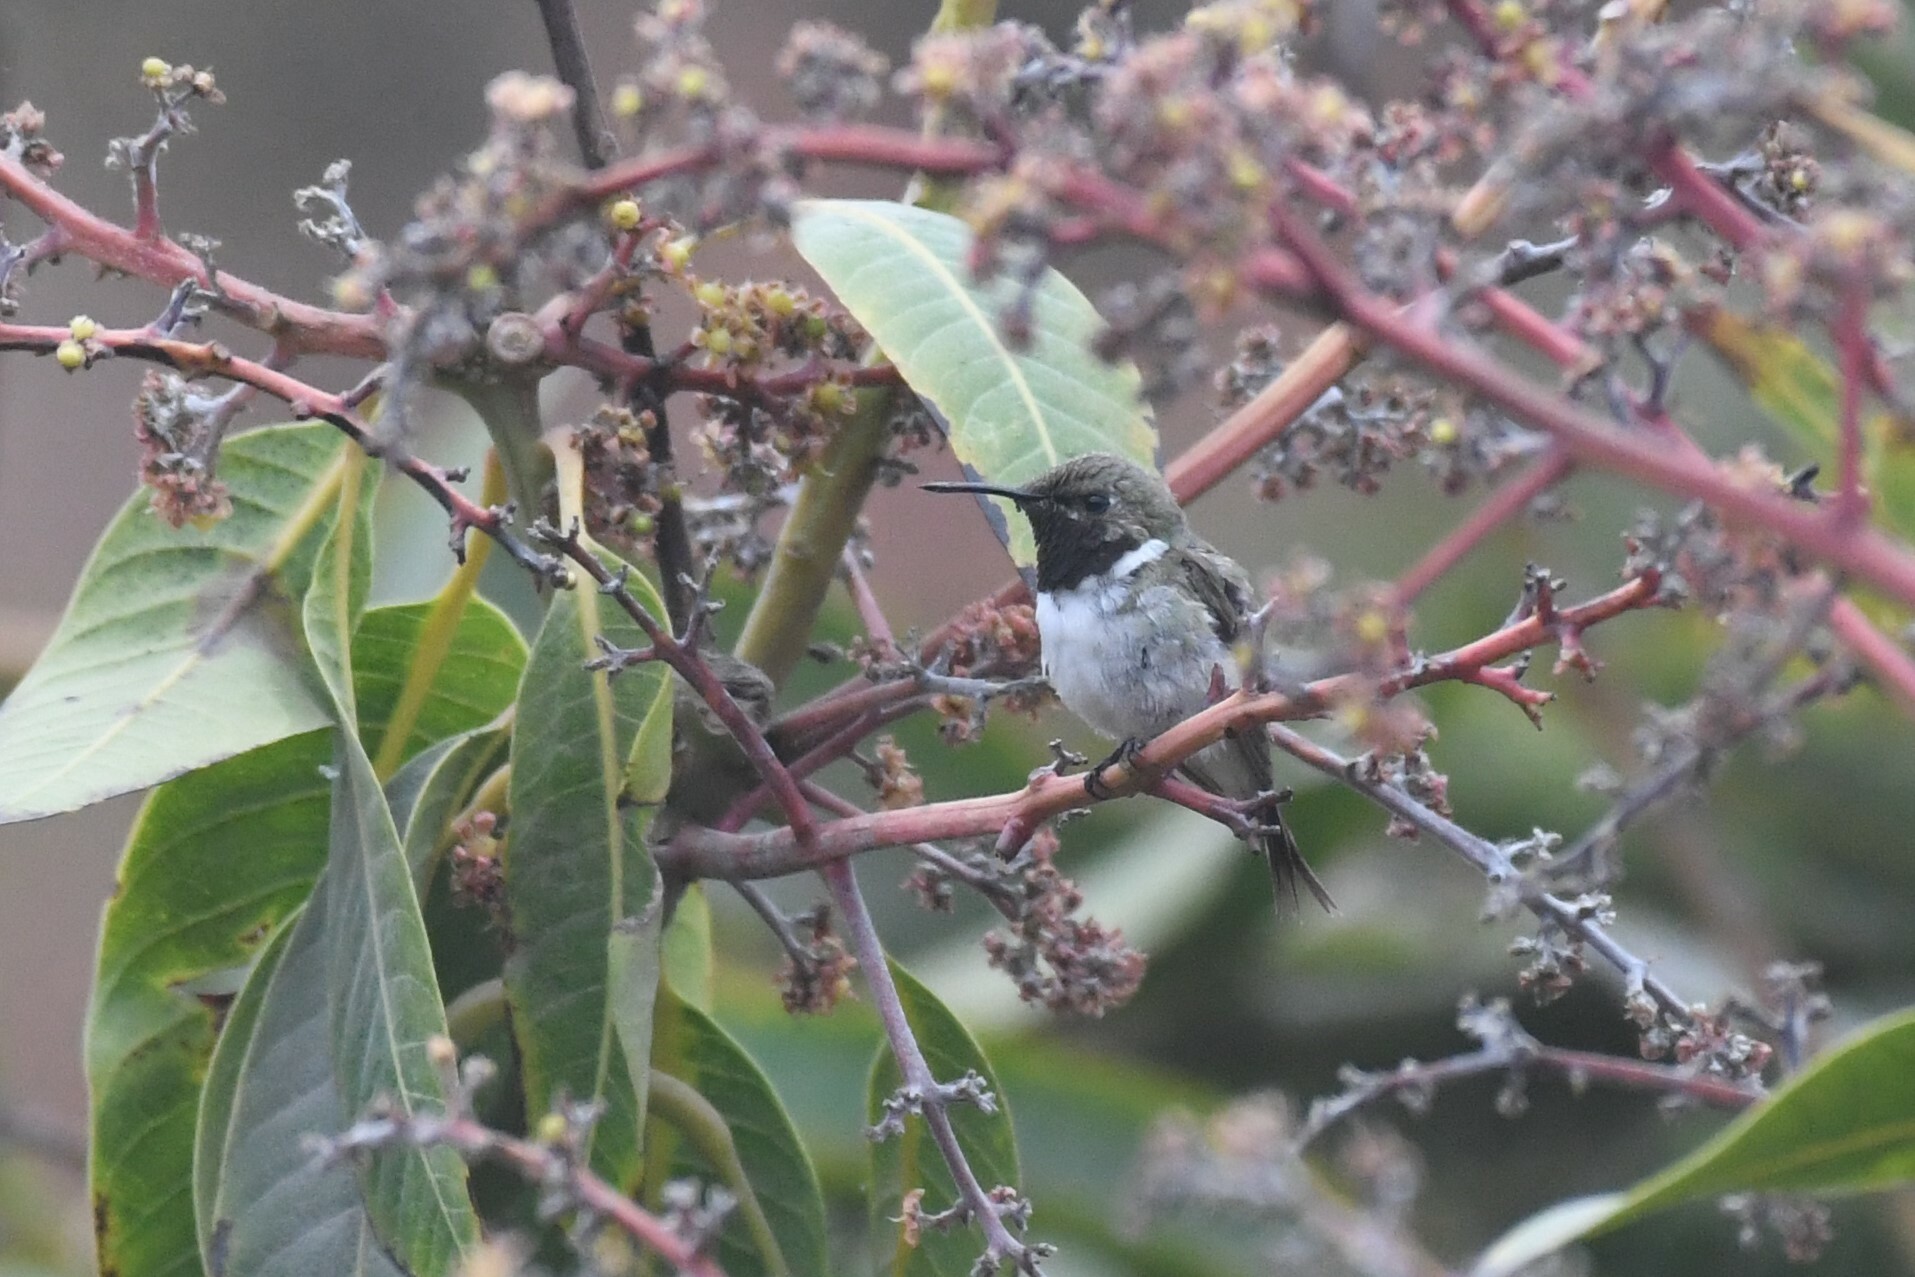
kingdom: Animalia
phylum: Chordata
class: Aves
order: Apodiformes
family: Trochilidae
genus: Eulidia
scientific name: Eulidia yarrellii
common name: Chilean woodstar
